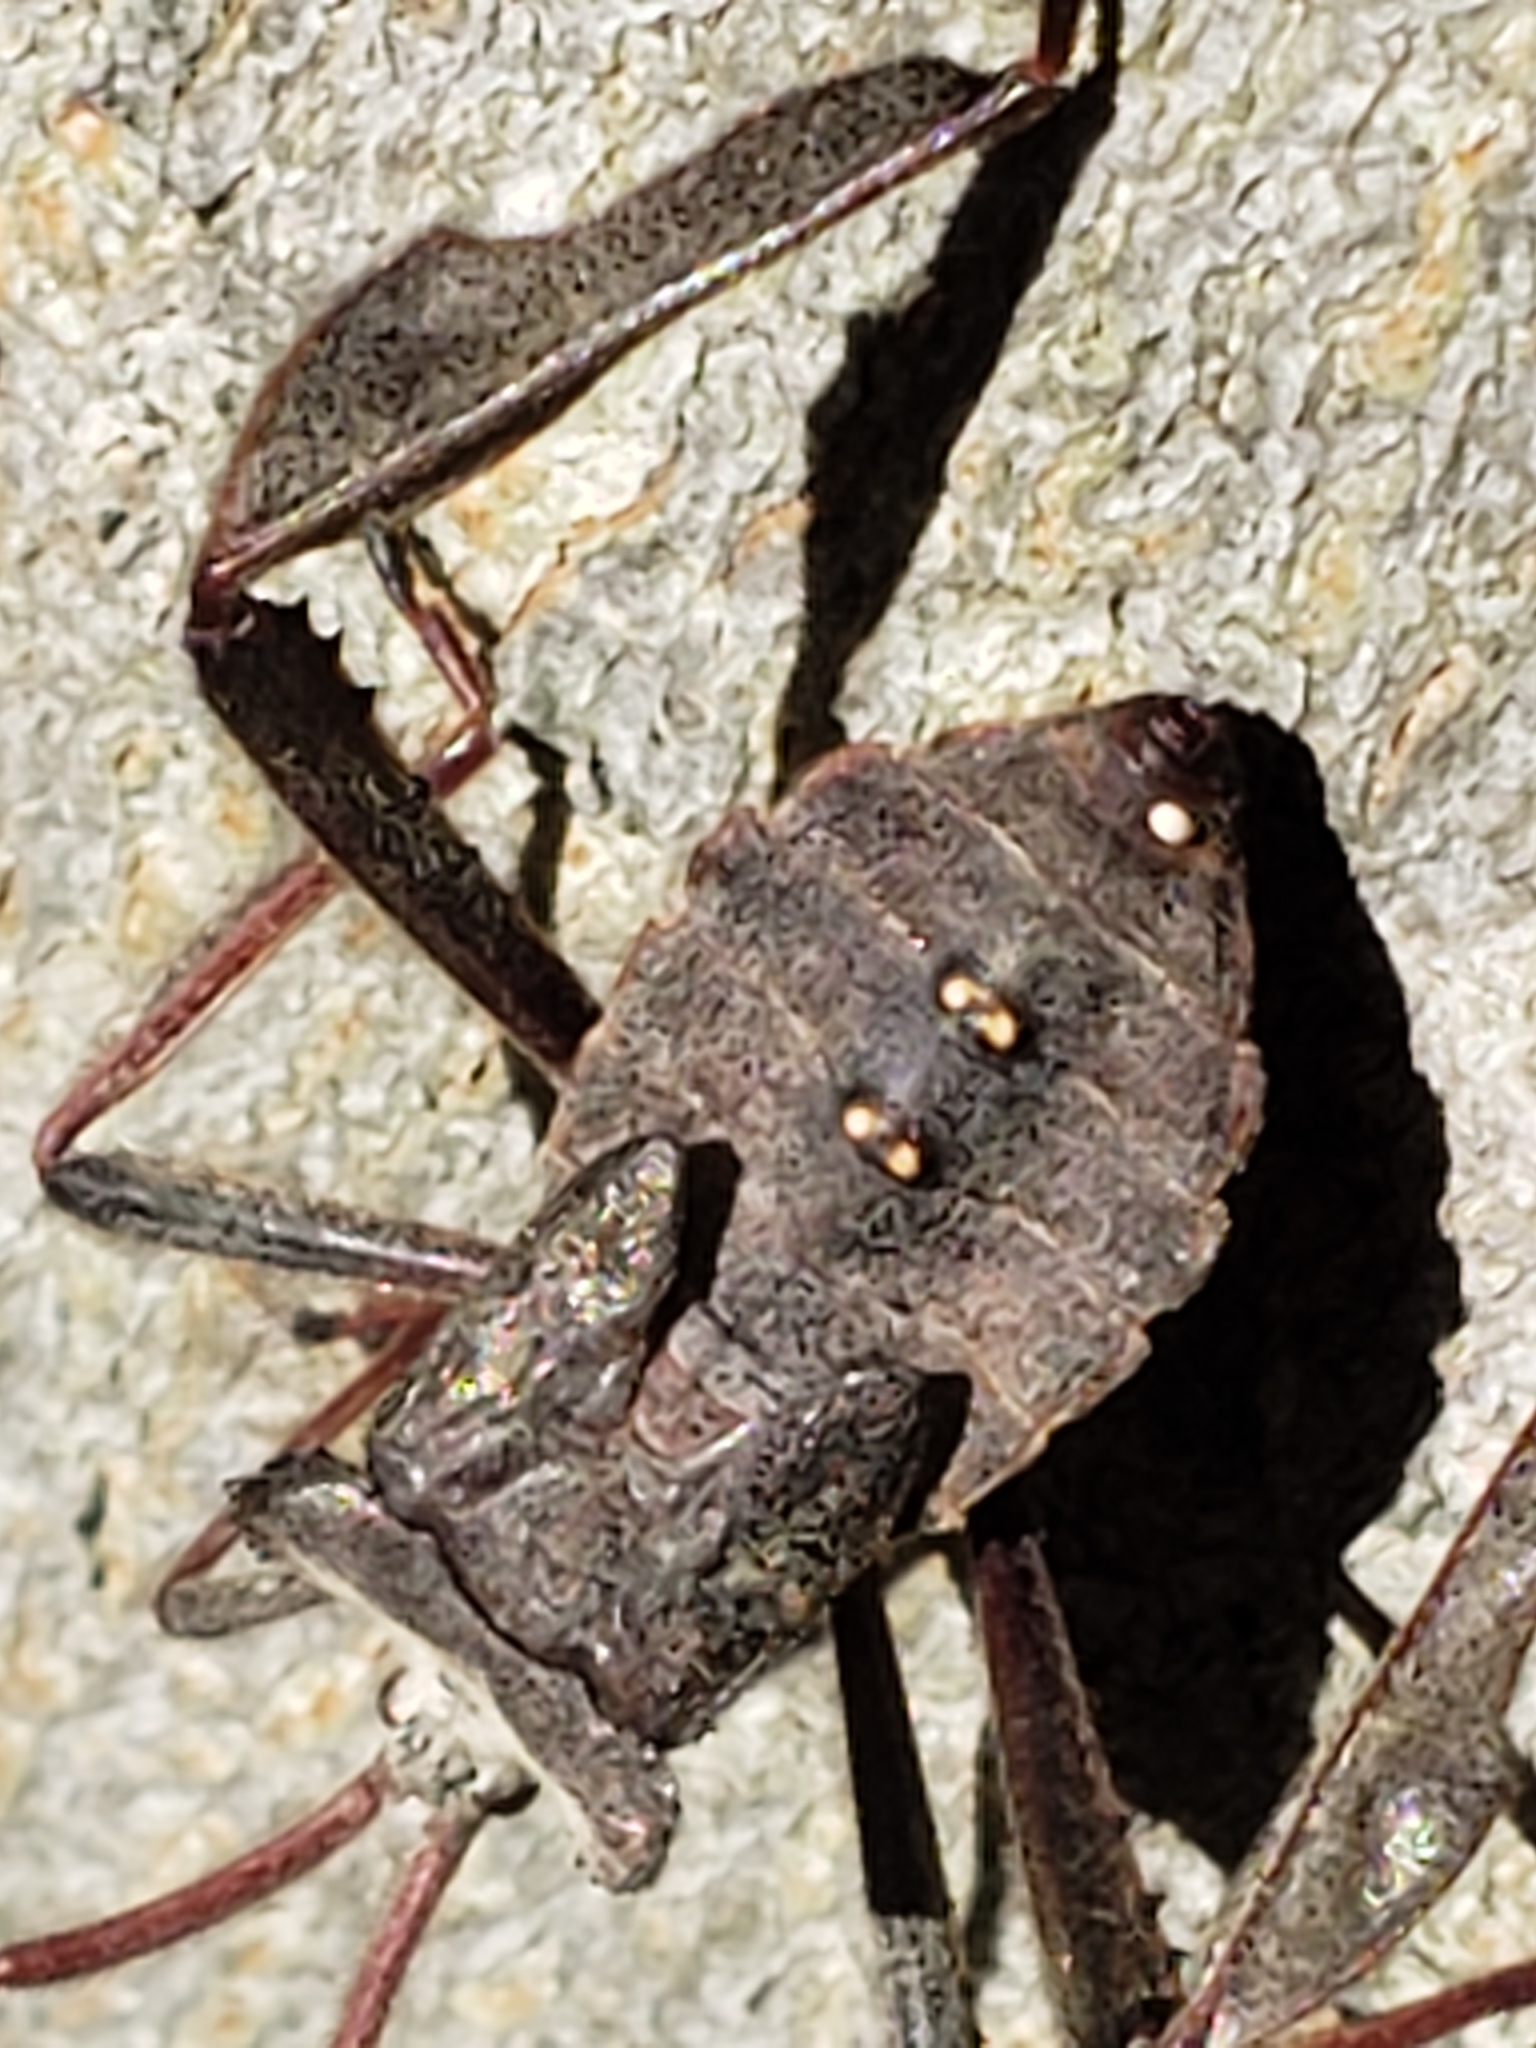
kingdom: Animalia
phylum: Arthropoda
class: Insecta
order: Hemiptera
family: Coreidae
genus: Acanthocephala
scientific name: Acanthocephala declivis
